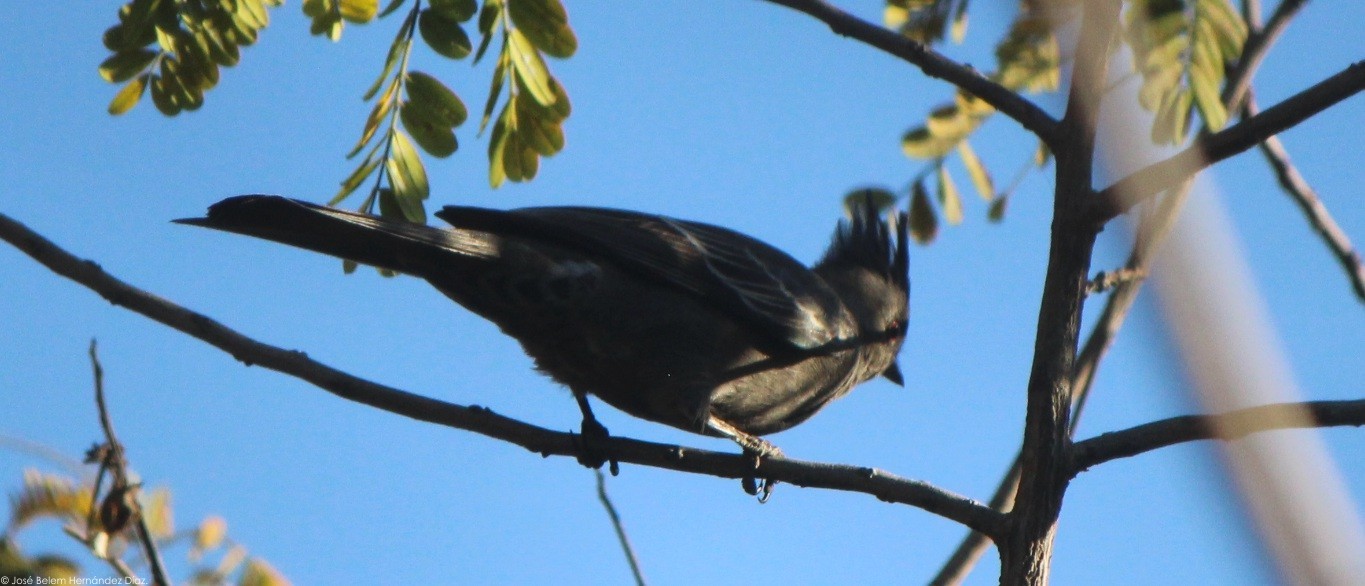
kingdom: Animalia
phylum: Chordata
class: Aves
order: Passeriformes
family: Ptilogonatidae
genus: Phainopepla
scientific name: Phainopepla nitens
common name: Phainopepla
